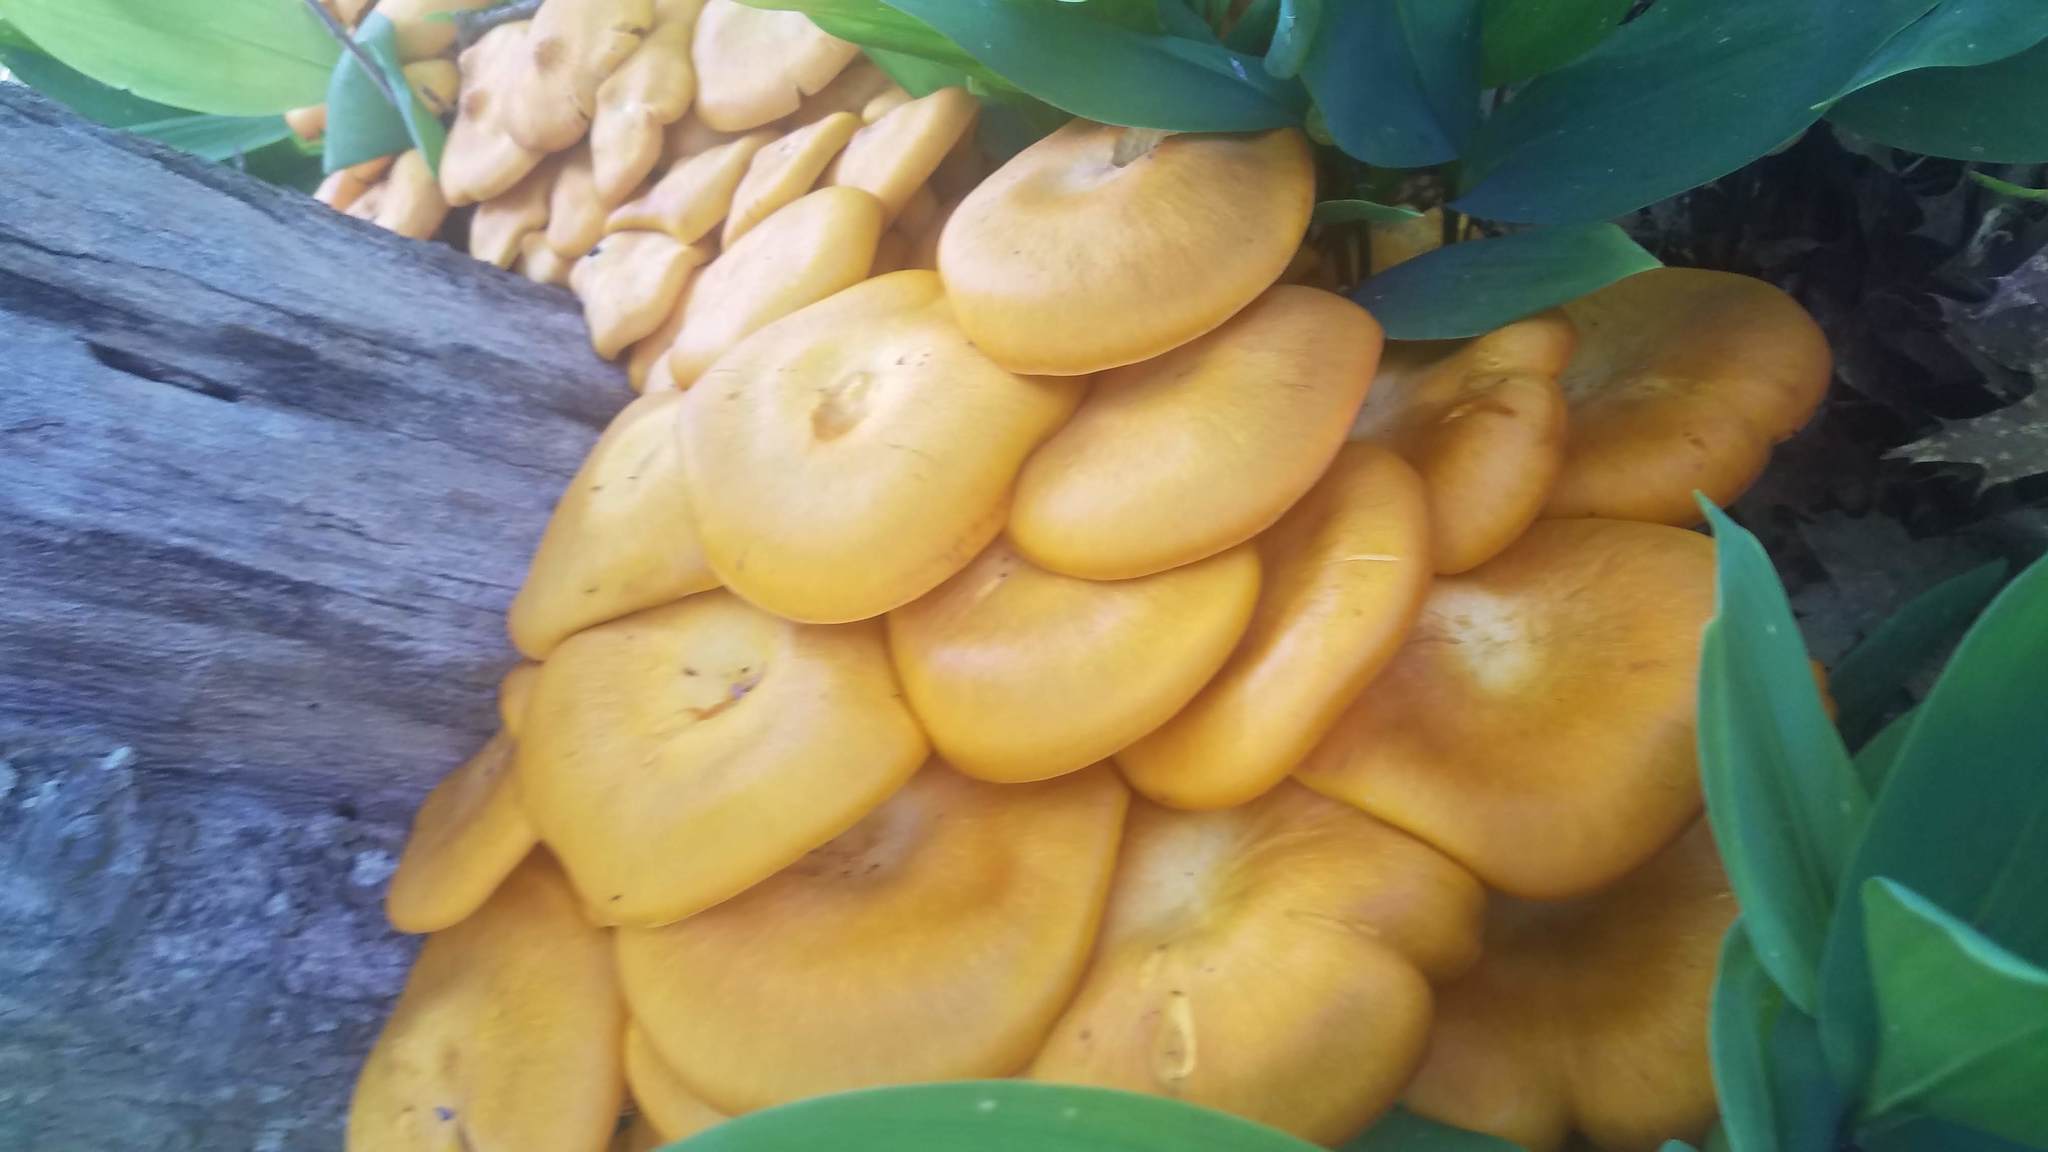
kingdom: Fungi
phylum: Basidiomycota
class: Agaricomycetes
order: Agaricales
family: Omphalotaceae
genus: Omphalotus
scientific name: Omphalotus illudens
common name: Jack o lantern
